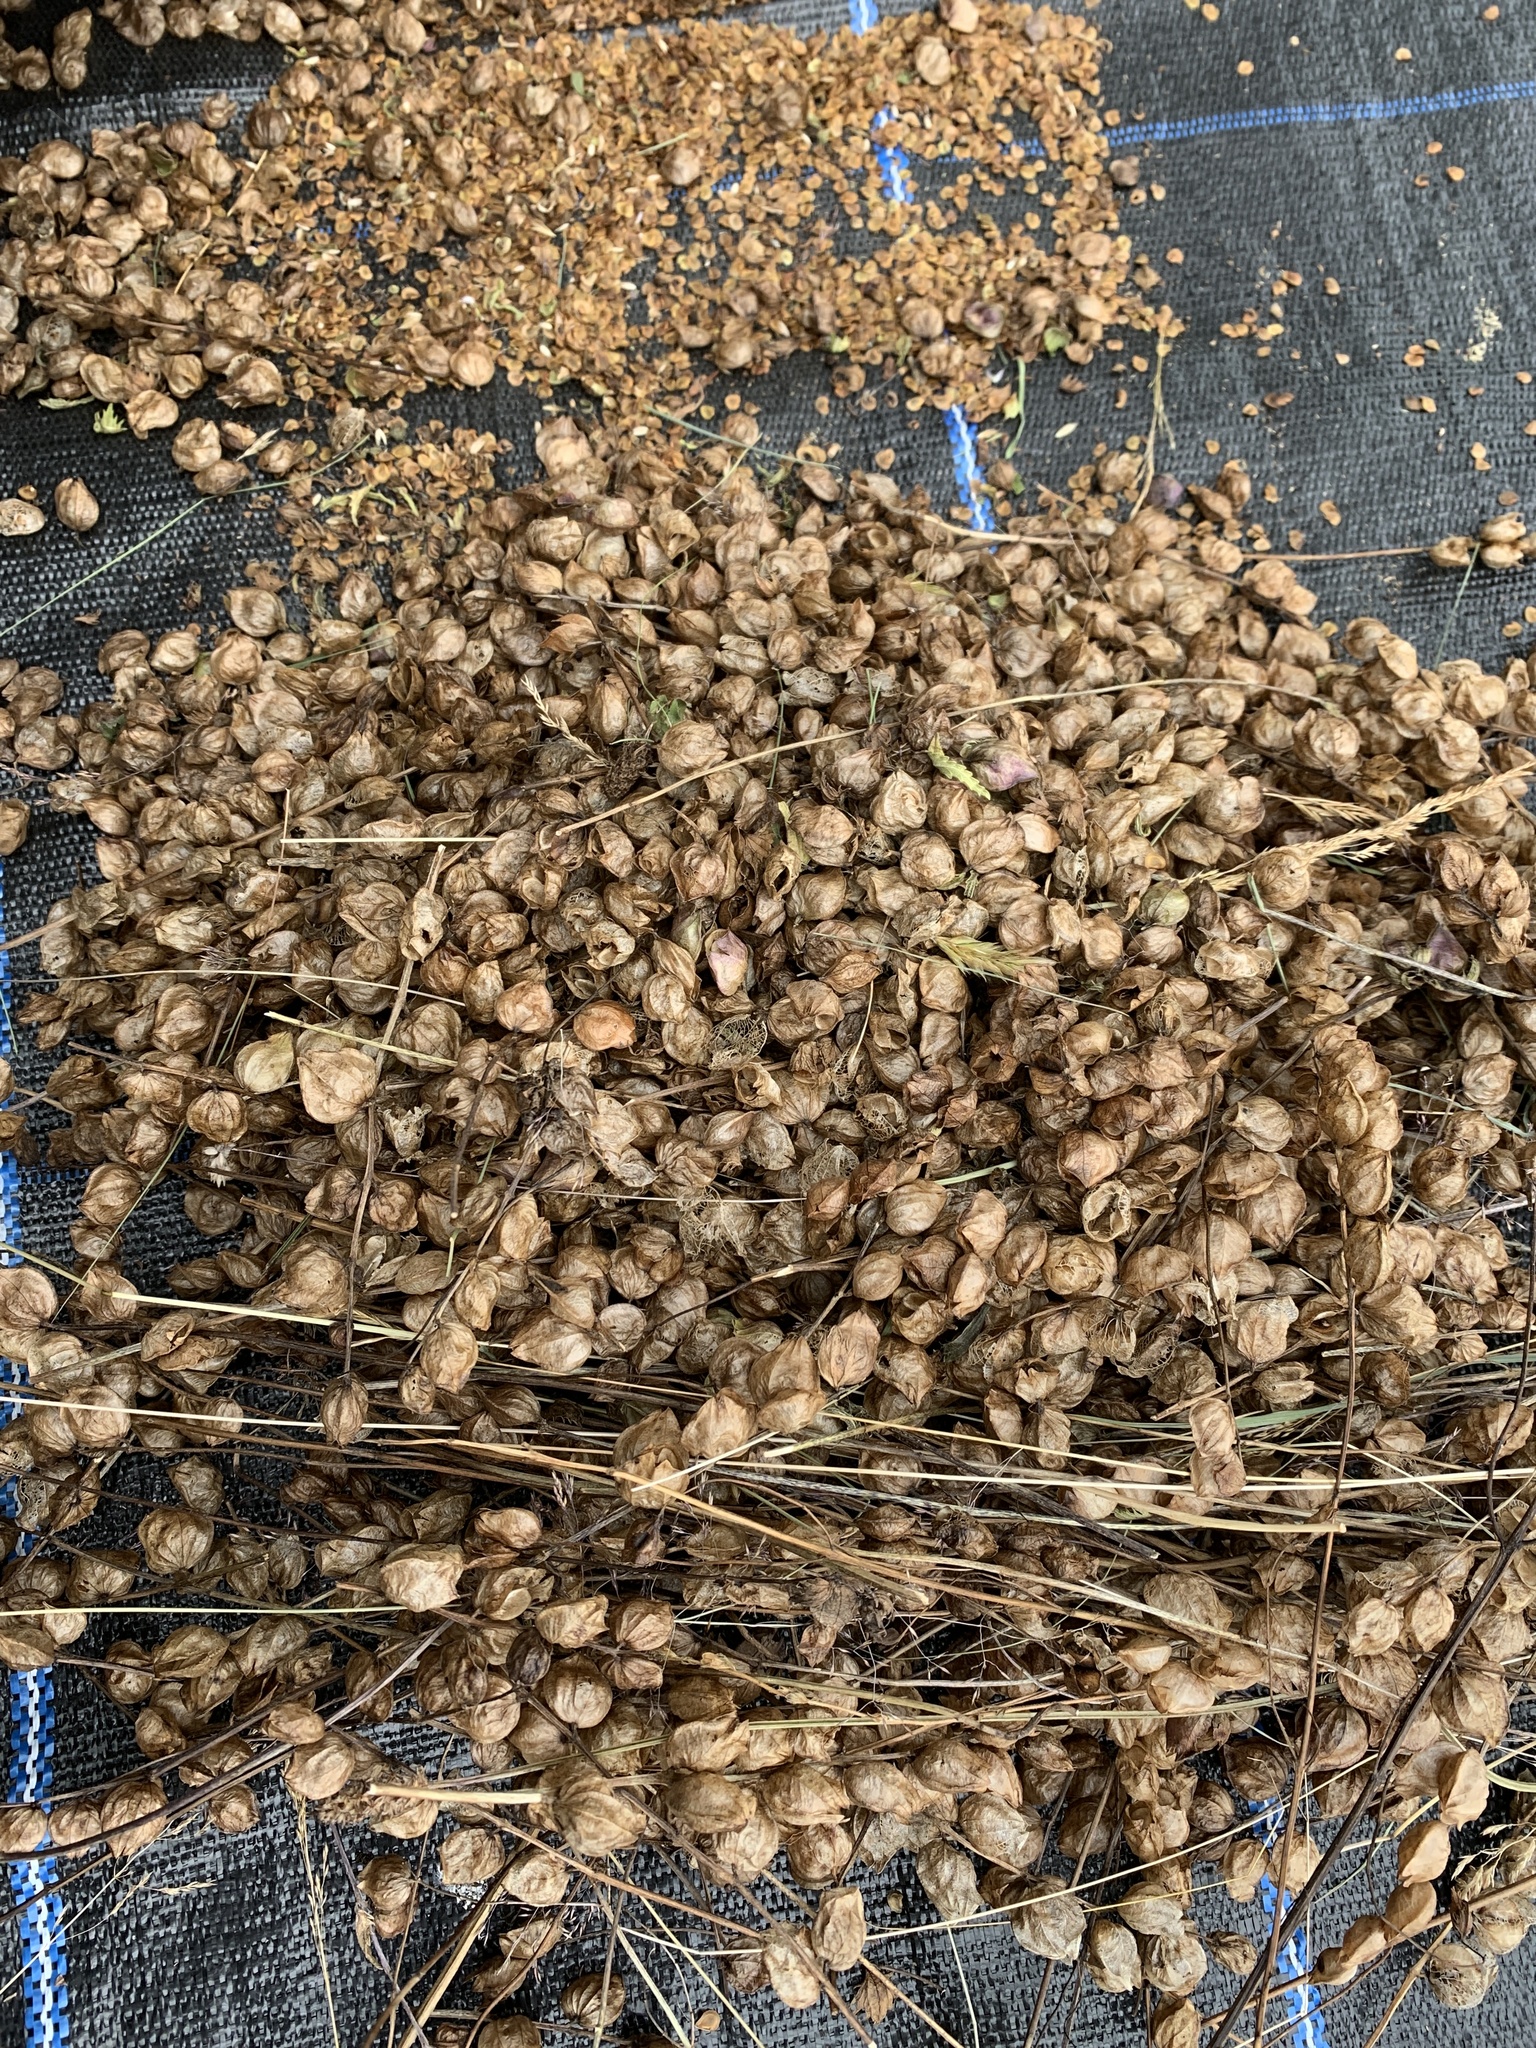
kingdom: Plantae
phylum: Tracheophyta
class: Magnoliopsida
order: Lamiales
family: Orobanchaceae
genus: Rhinanthus
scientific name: Rhinanthus minor
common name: Yellow-rattle
